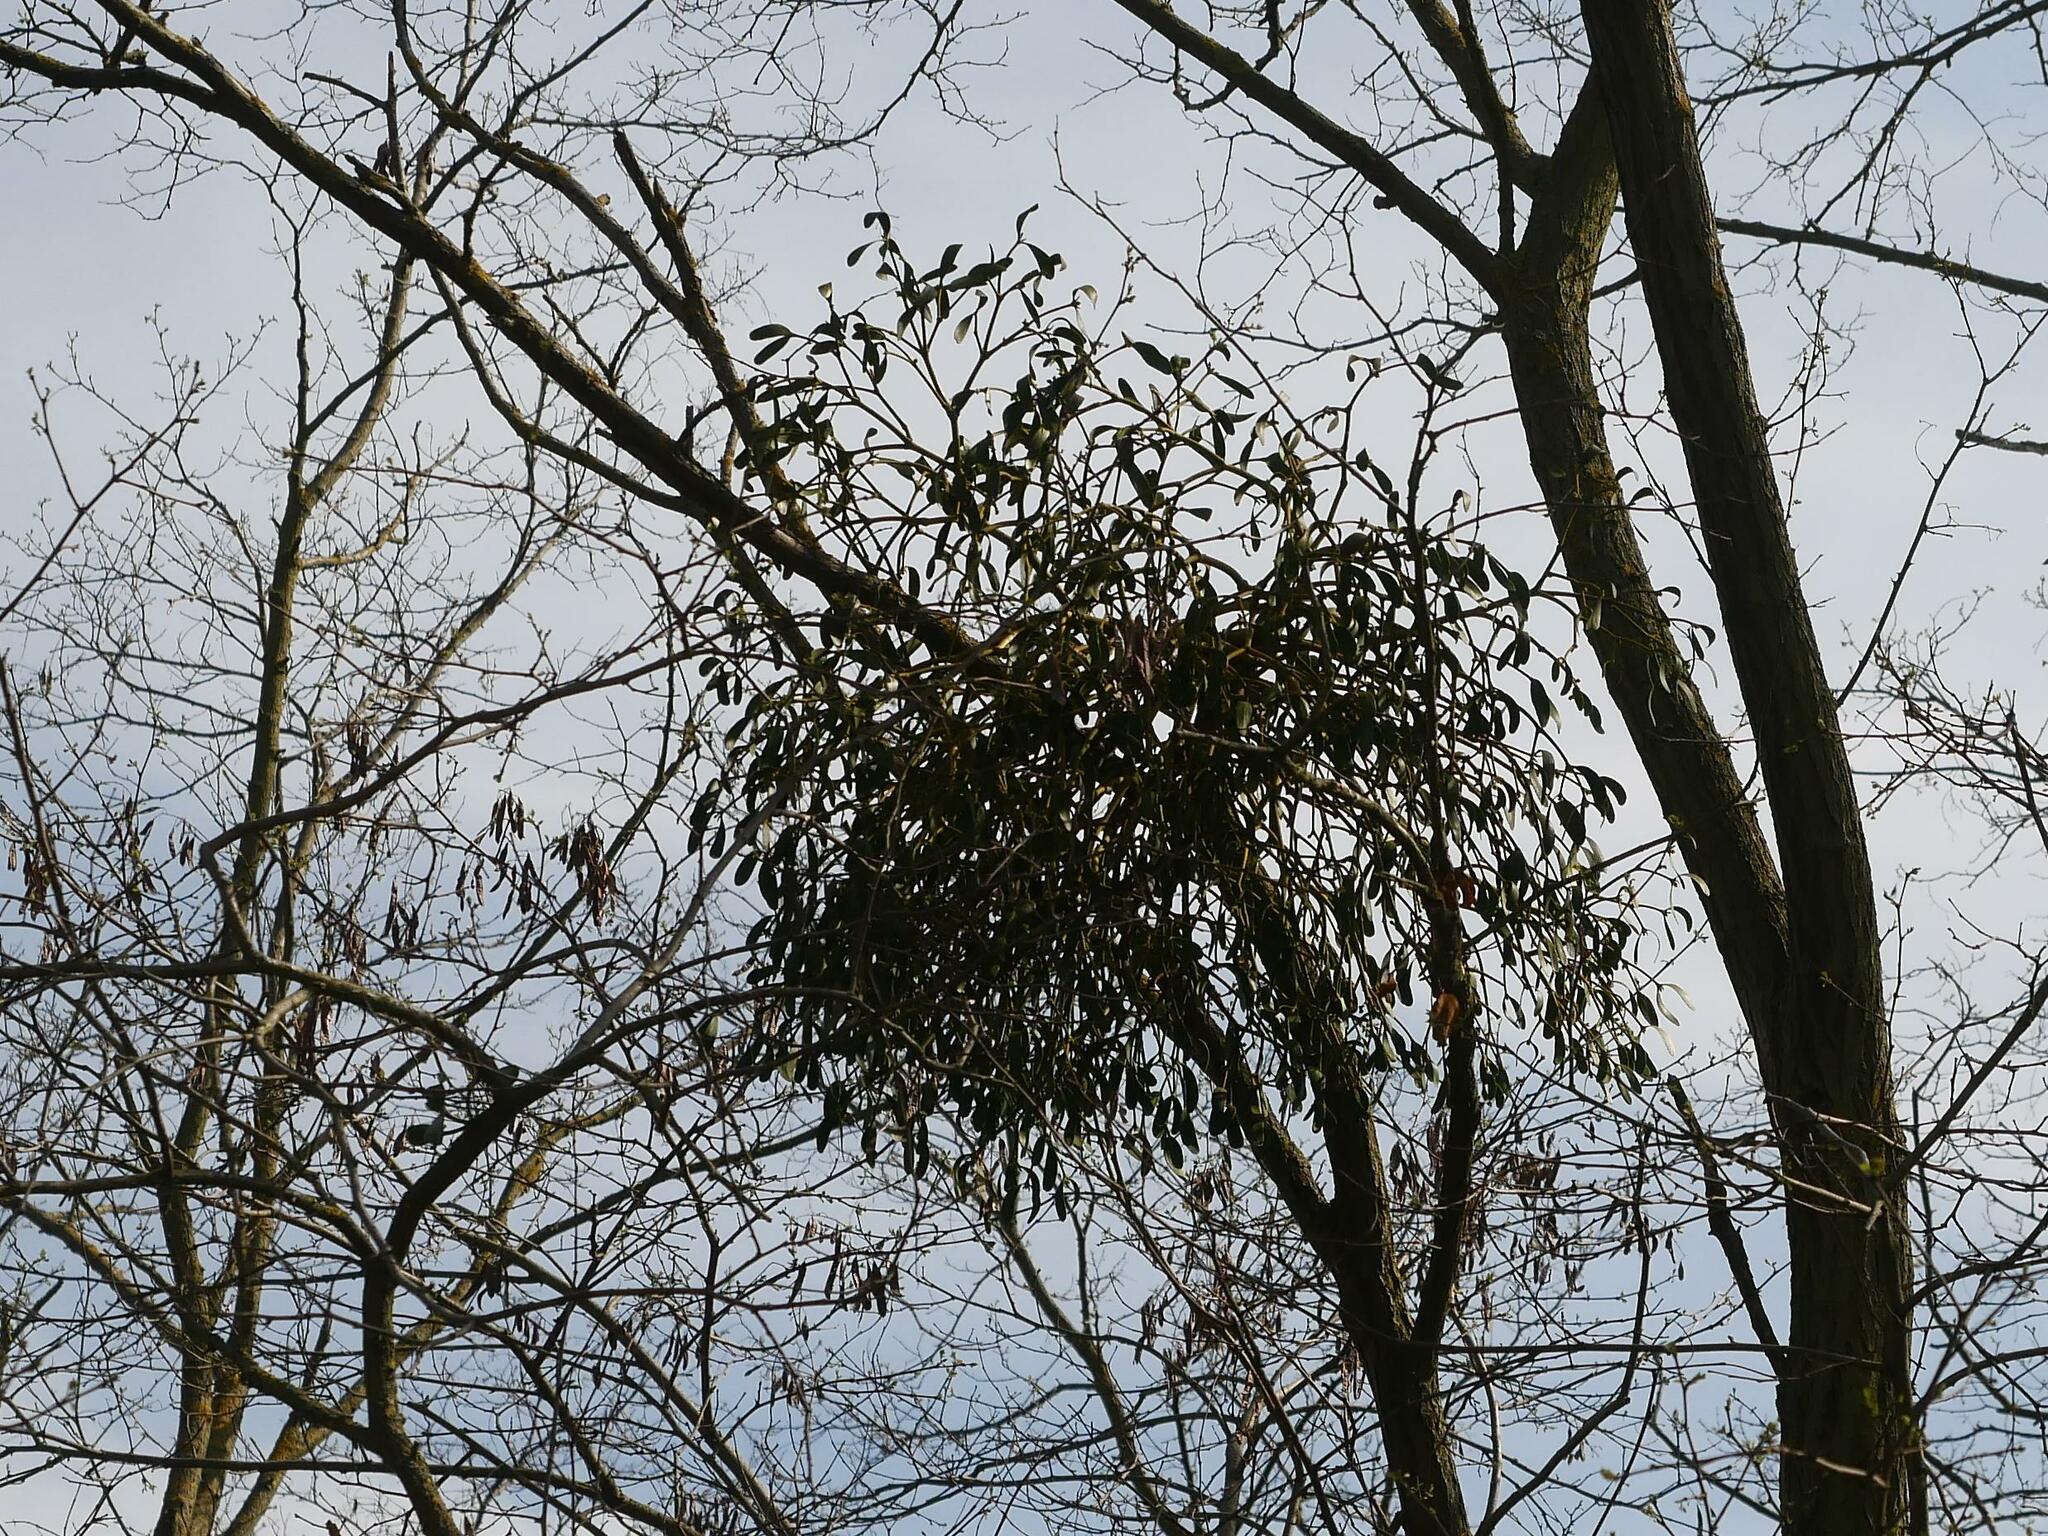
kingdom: Plantae
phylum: Tracheophyta
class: Magnoliopsida
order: Santalales
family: Viscaceae
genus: Viscum
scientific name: Viscum album
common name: Mistletoe
